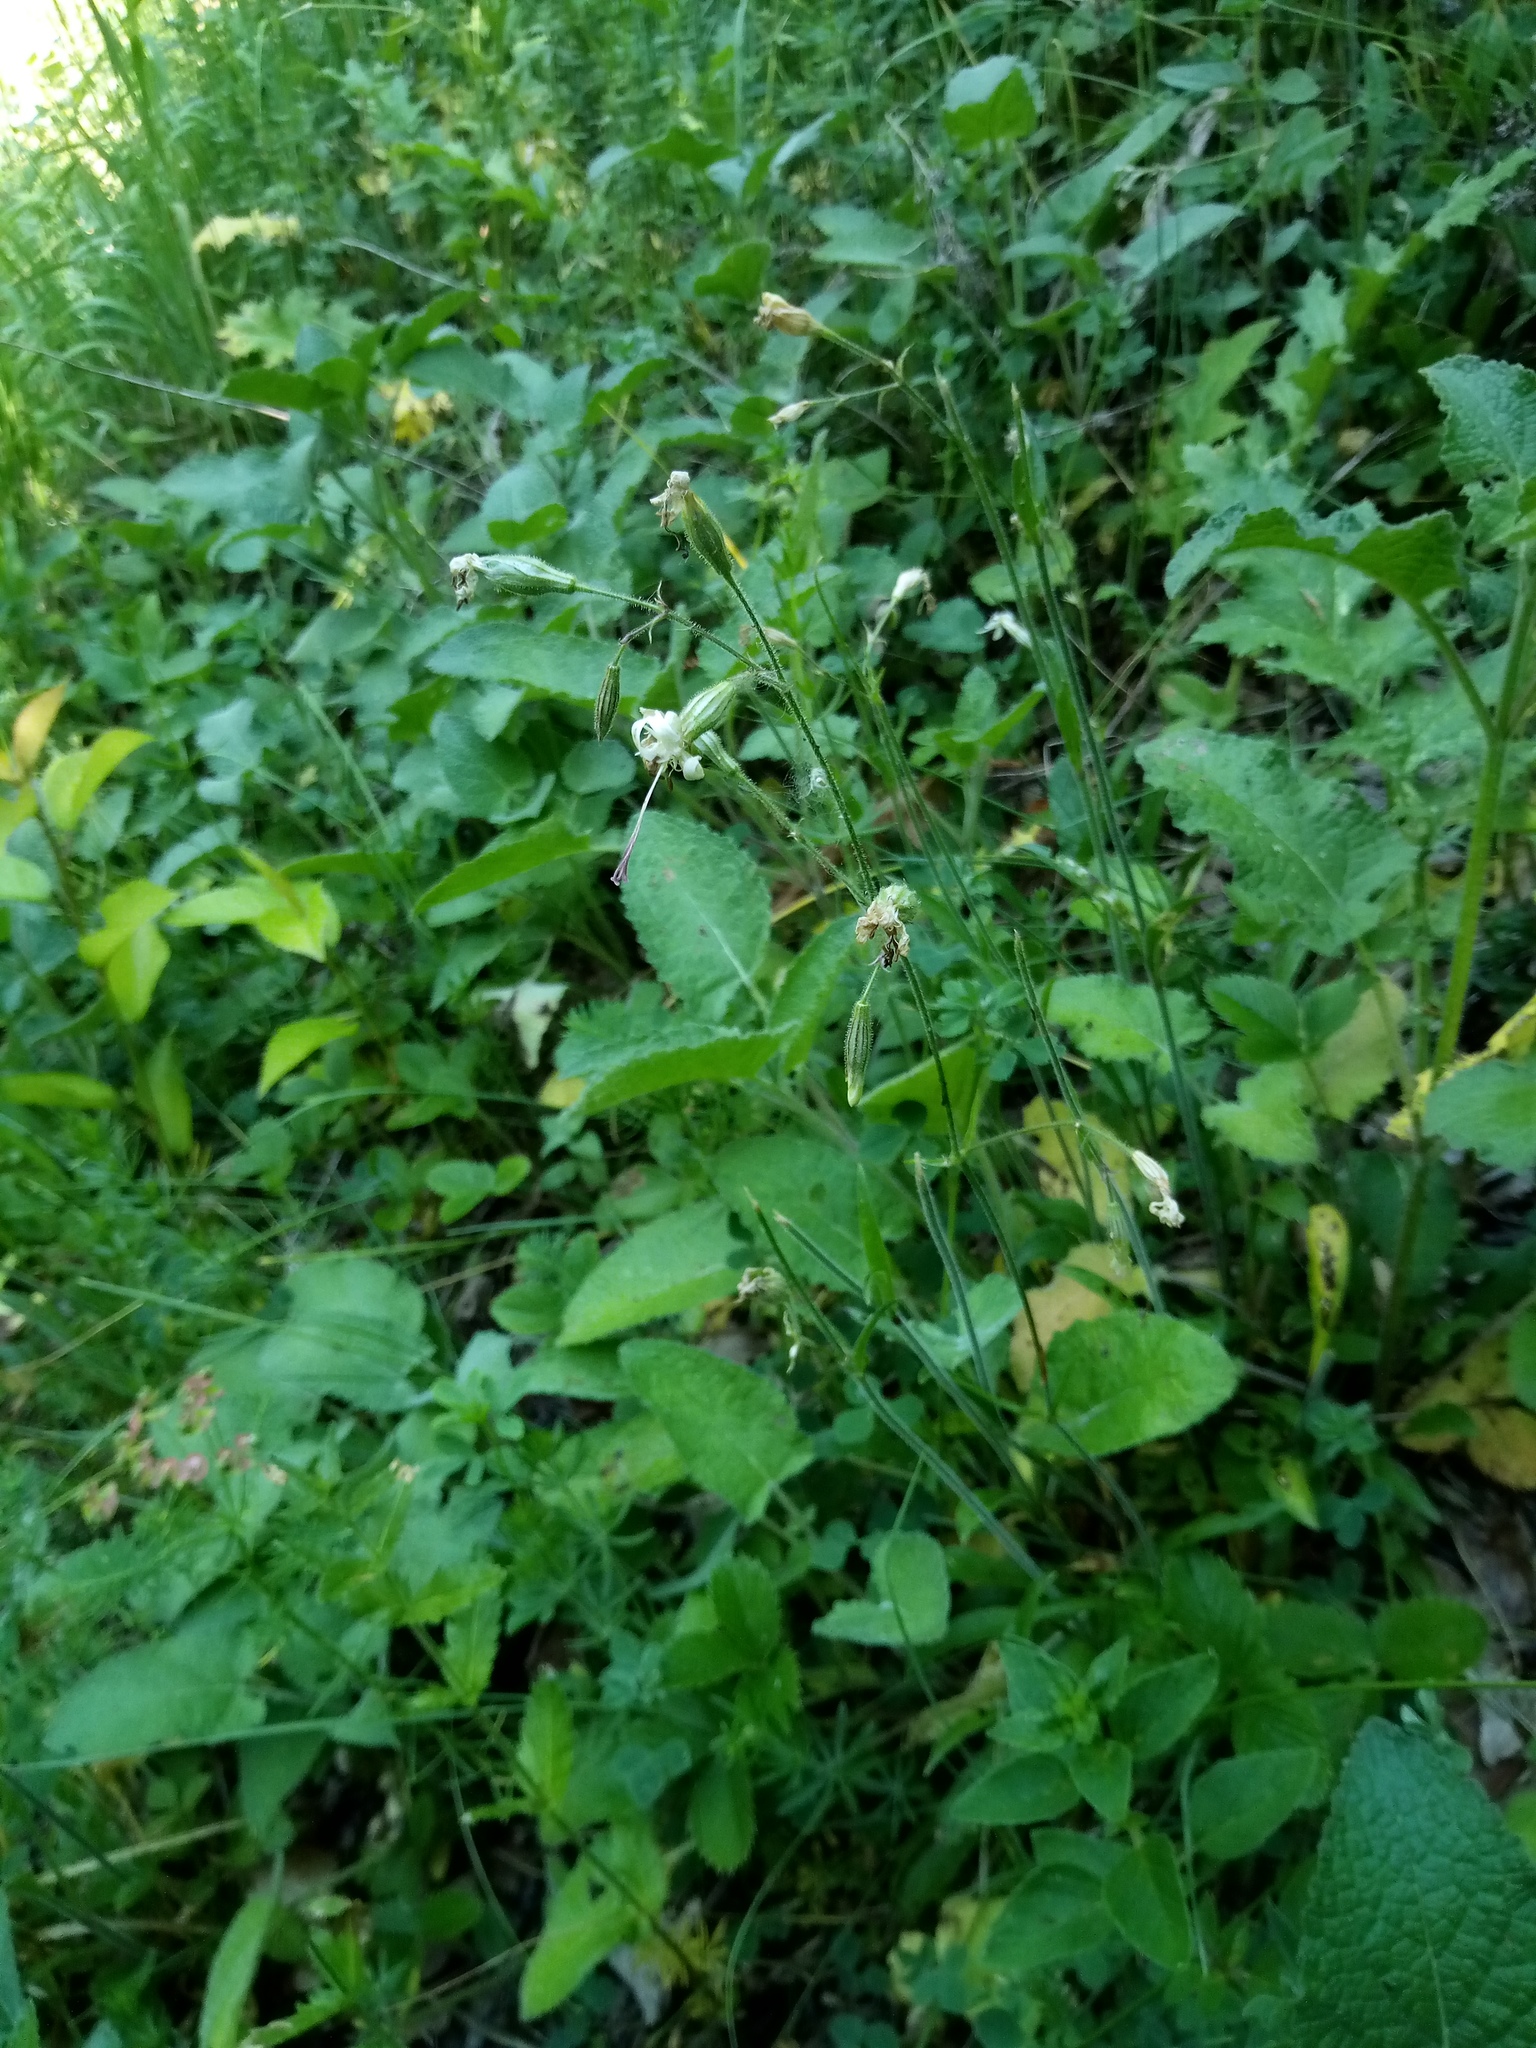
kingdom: Plantae
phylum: Tracheophyta
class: Magnoliopsida
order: Caryophyllales
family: Caryophyllaceae
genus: Silene
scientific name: Silene nutans
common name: Nottingham catchfly
